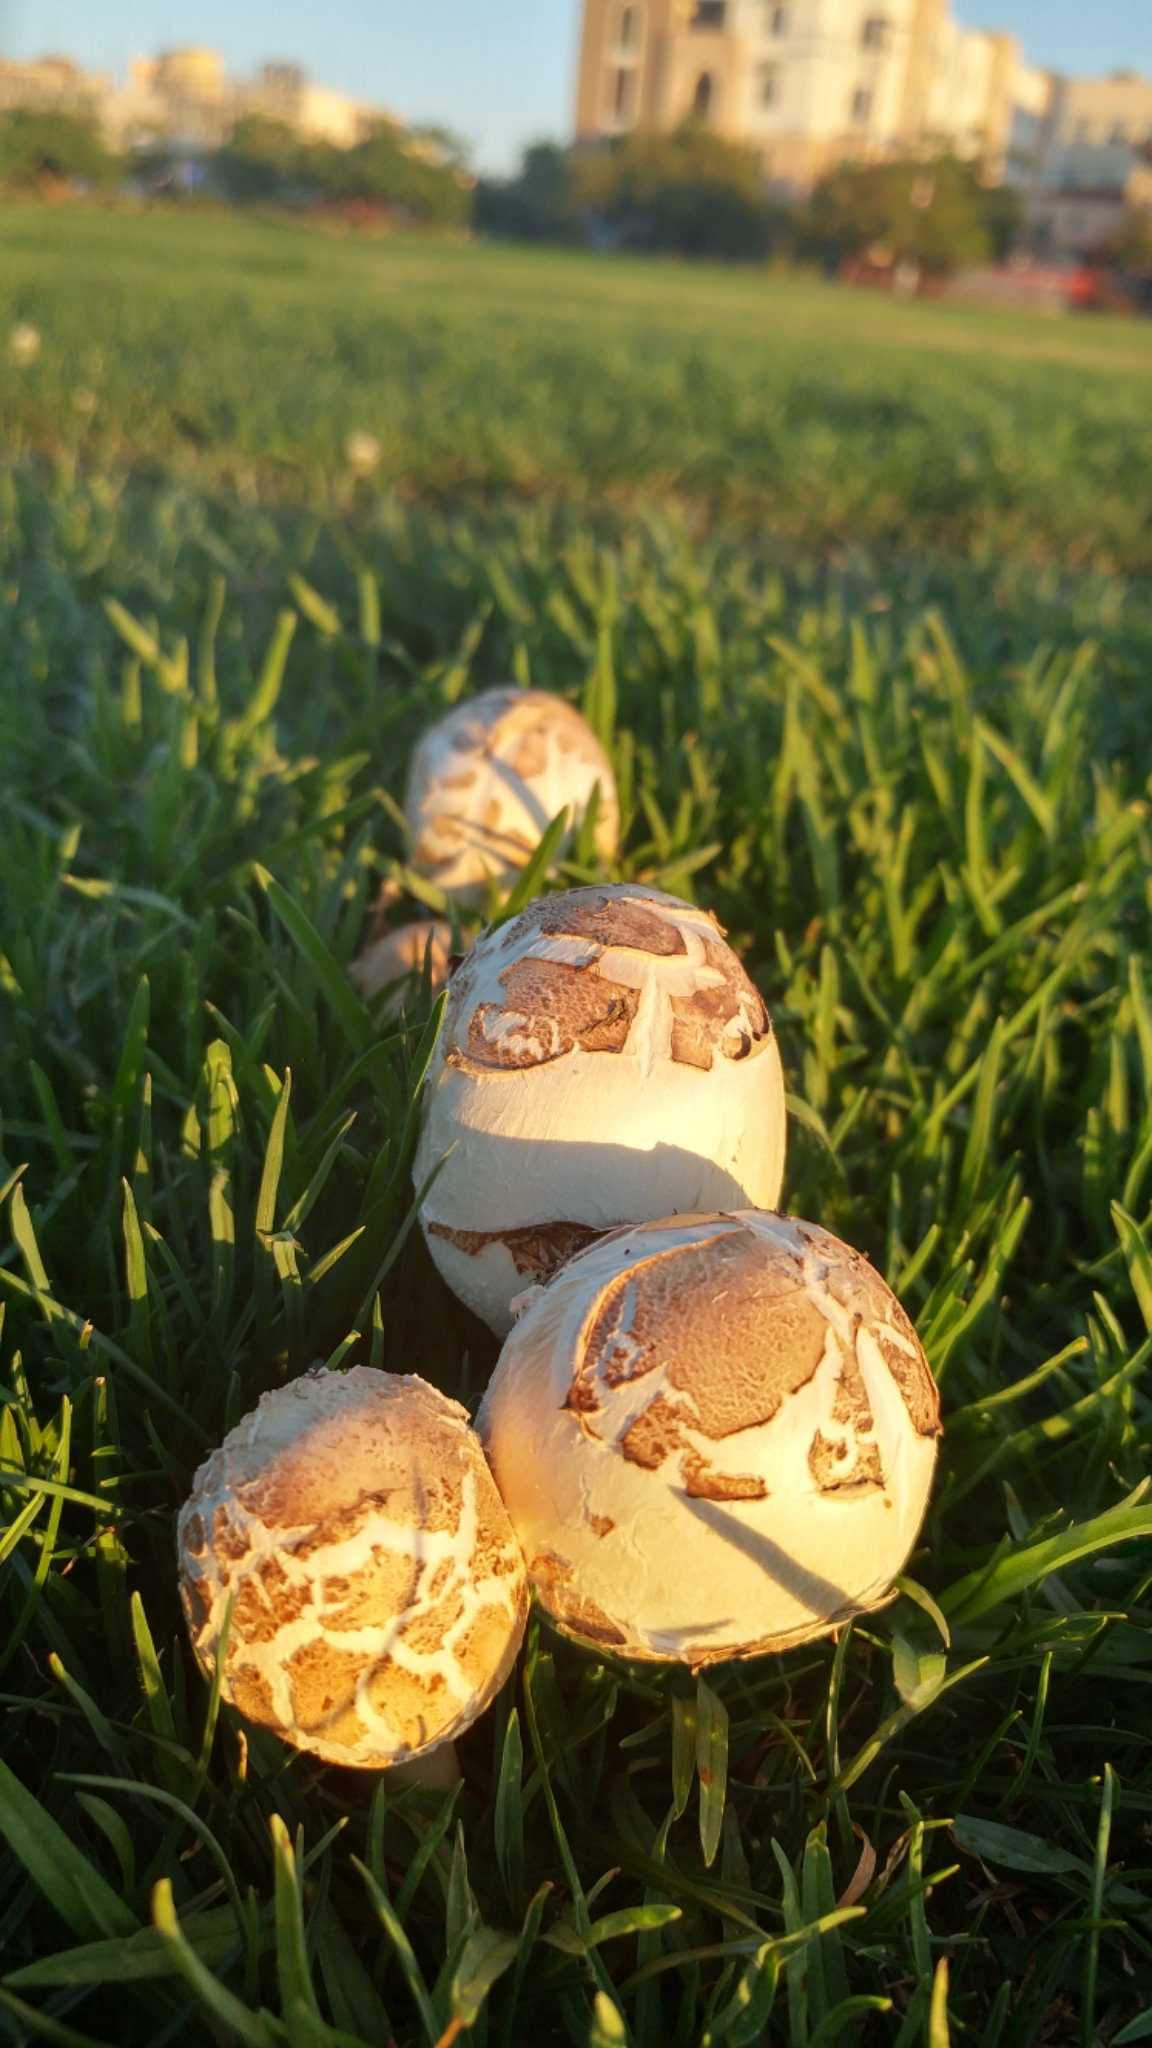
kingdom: Fungi
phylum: Basidiomycota
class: Agaricomycetes
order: Agaricales
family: Agaricaceae
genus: Chlorophyllum
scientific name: Chlorophyllum molybdites
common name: False parasol
